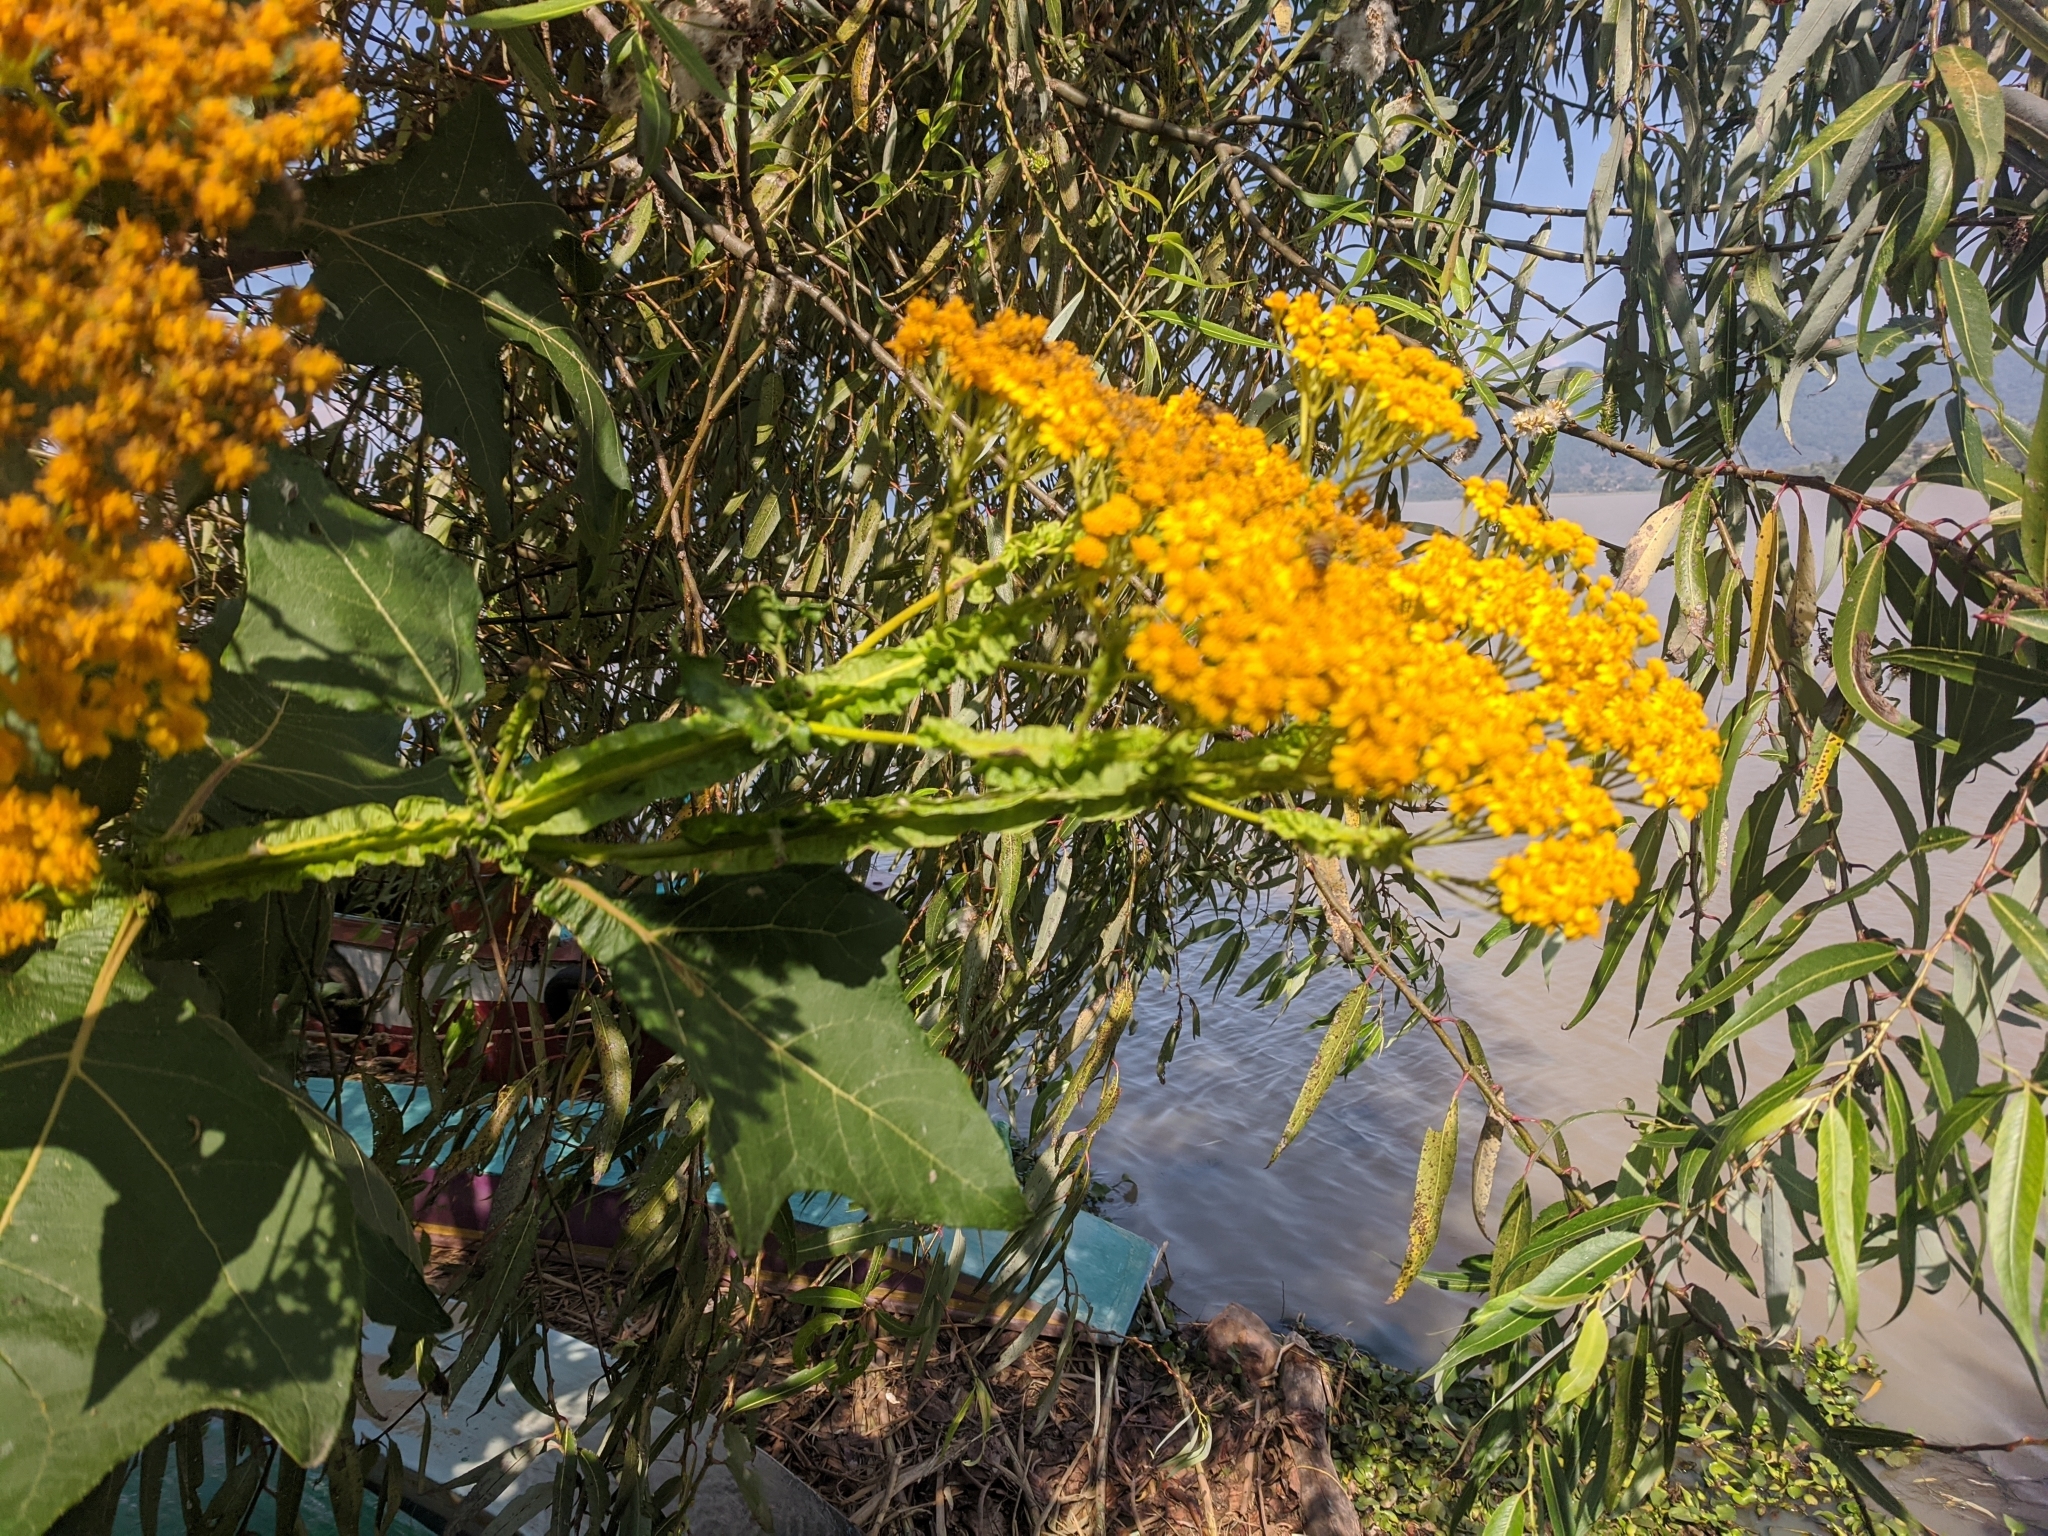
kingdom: Plantae
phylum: Tracheophyta
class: Magnoliopsida
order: Asterales
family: Asteraceae
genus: Verbesina
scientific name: Verbesina fastigiata
